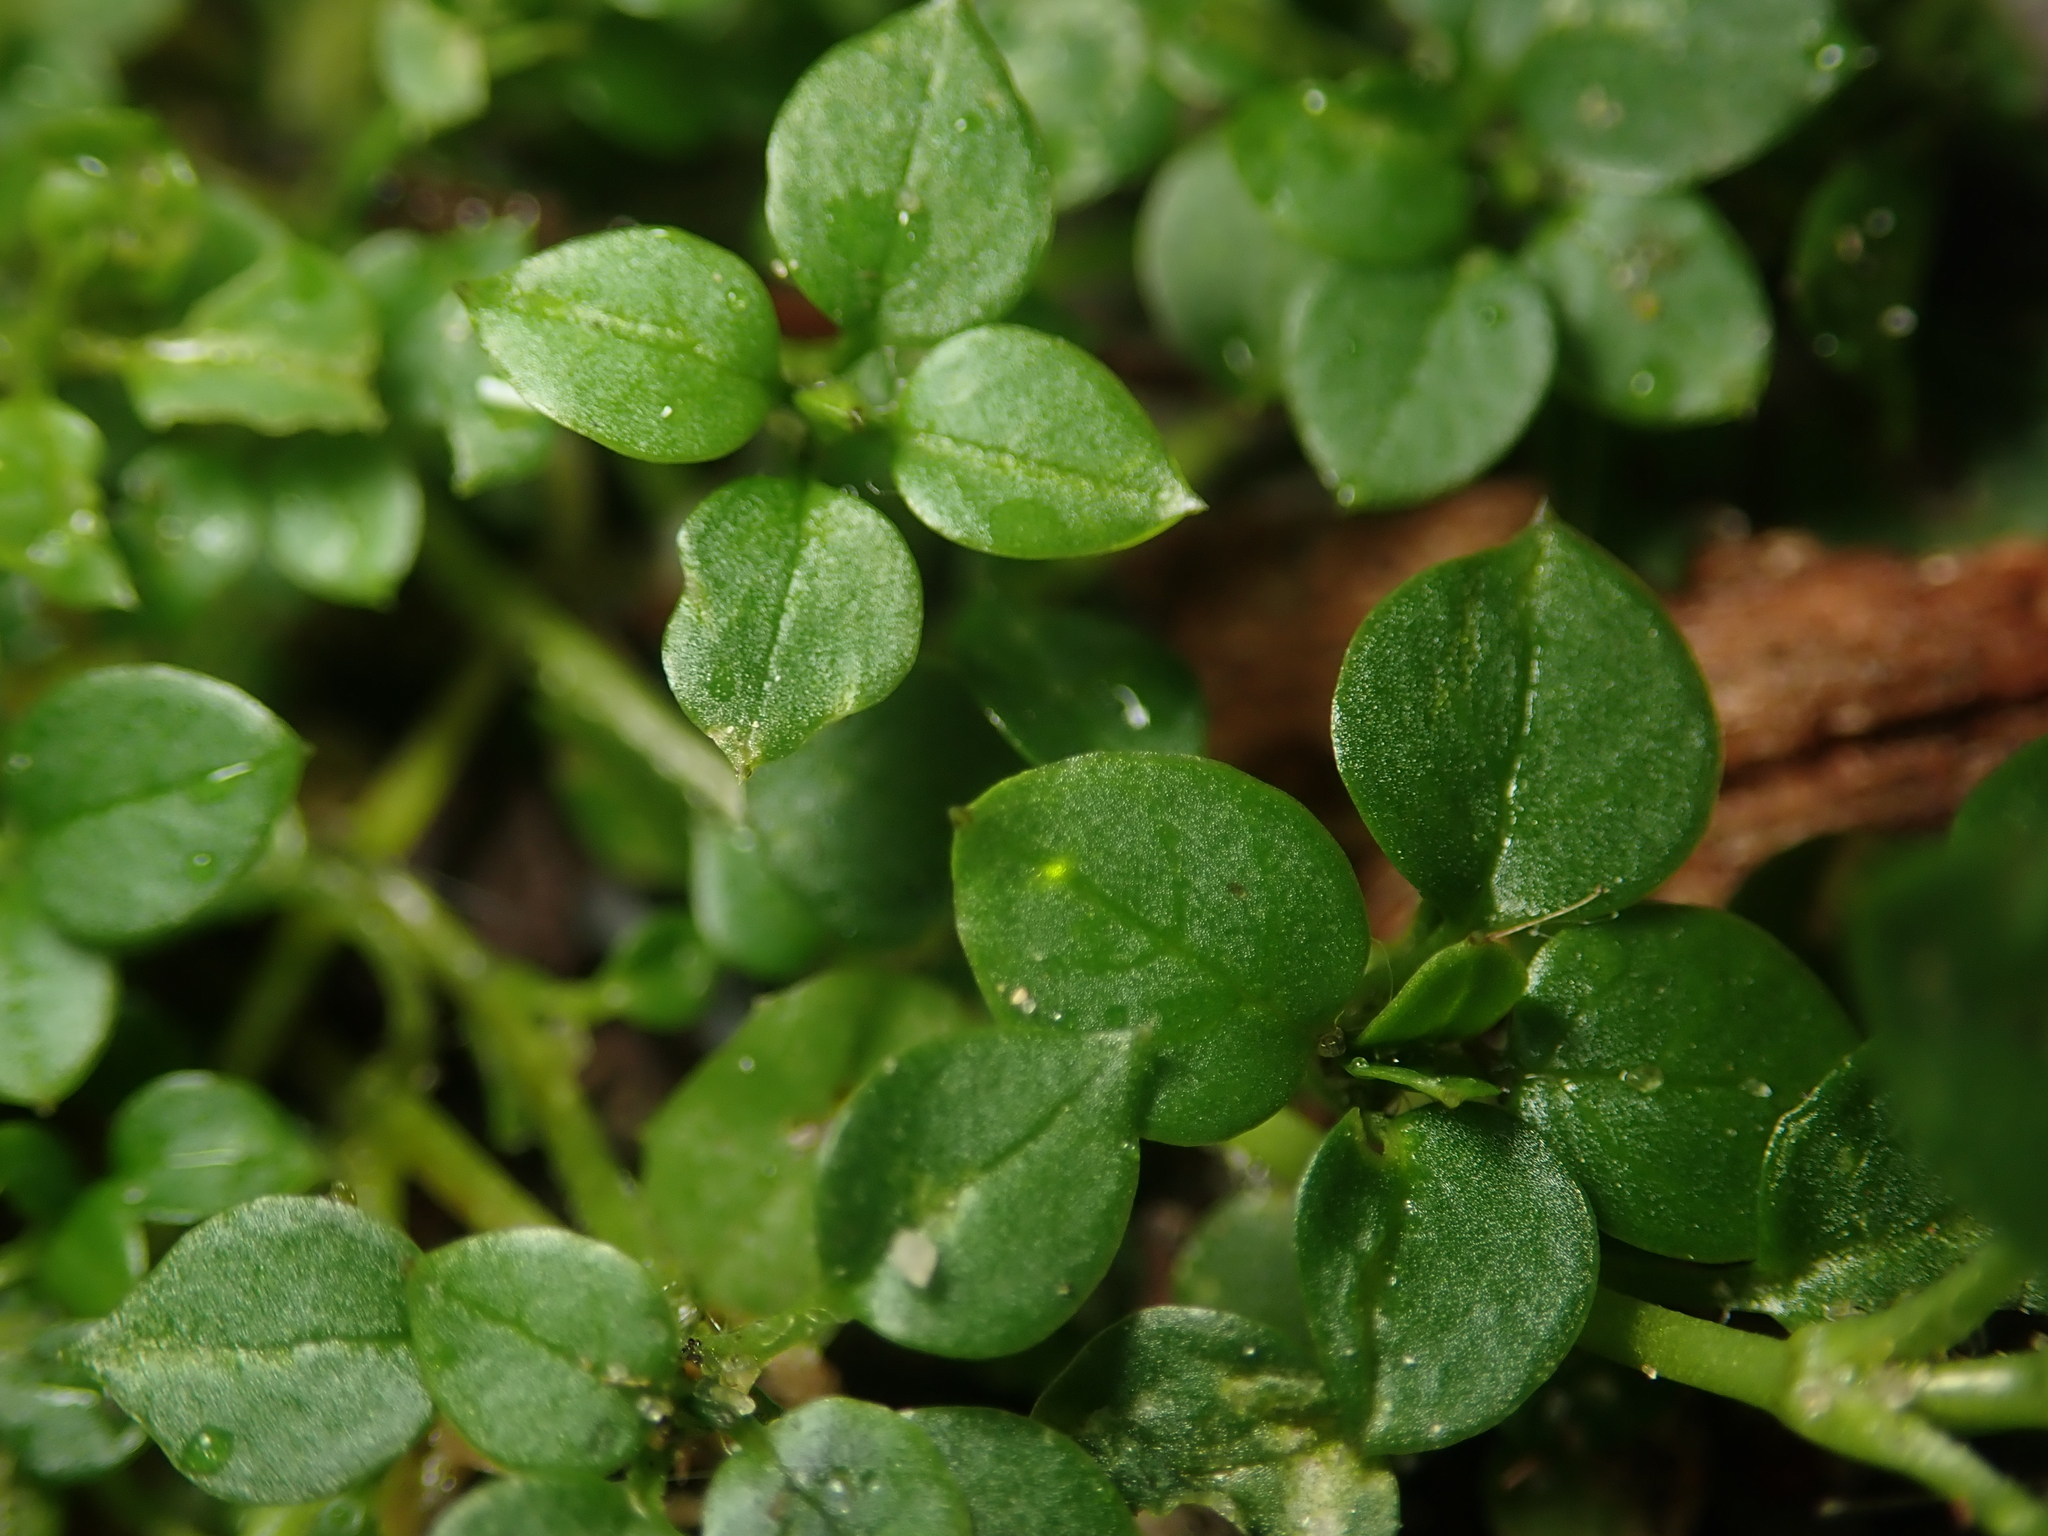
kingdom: Plantae
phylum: Tracheophyta
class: Magnoliopsida
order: Caryophyllales
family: Caryophyllaceae
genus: Stellaria
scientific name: Stellaria media
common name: Common chickweed
